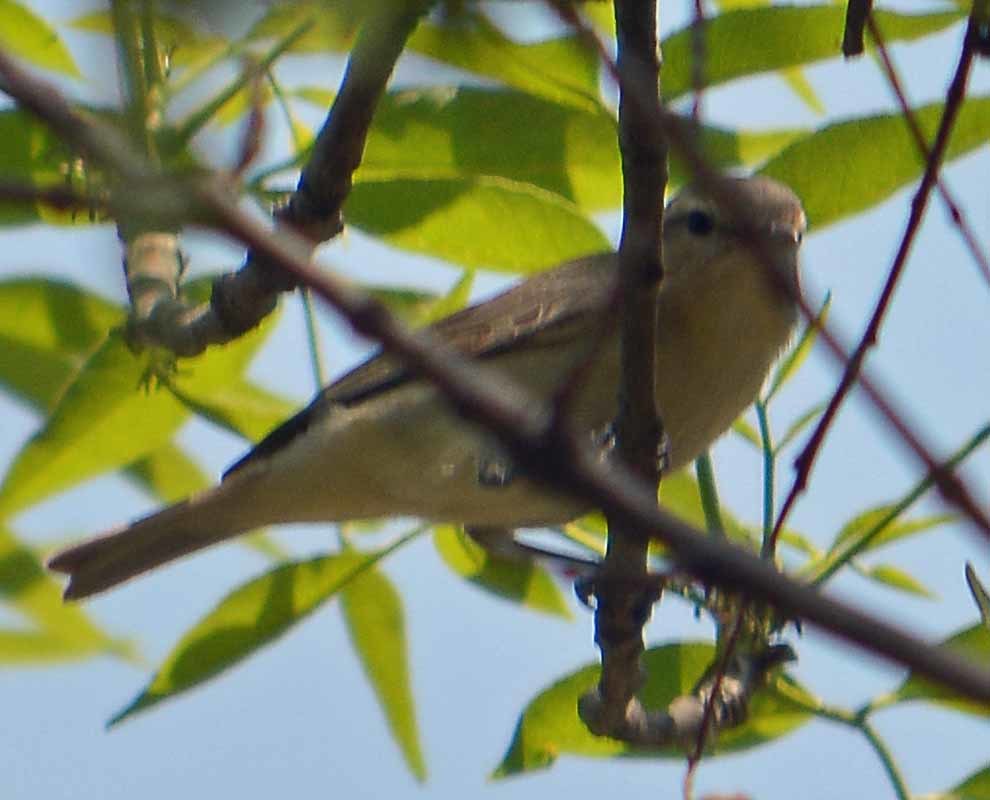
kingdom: Animalia
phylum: Chordata
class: Aves
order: Passeriformes
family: Vireonidae
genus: Vireo
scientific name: Vireo gilvus
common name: Warbling vireo
